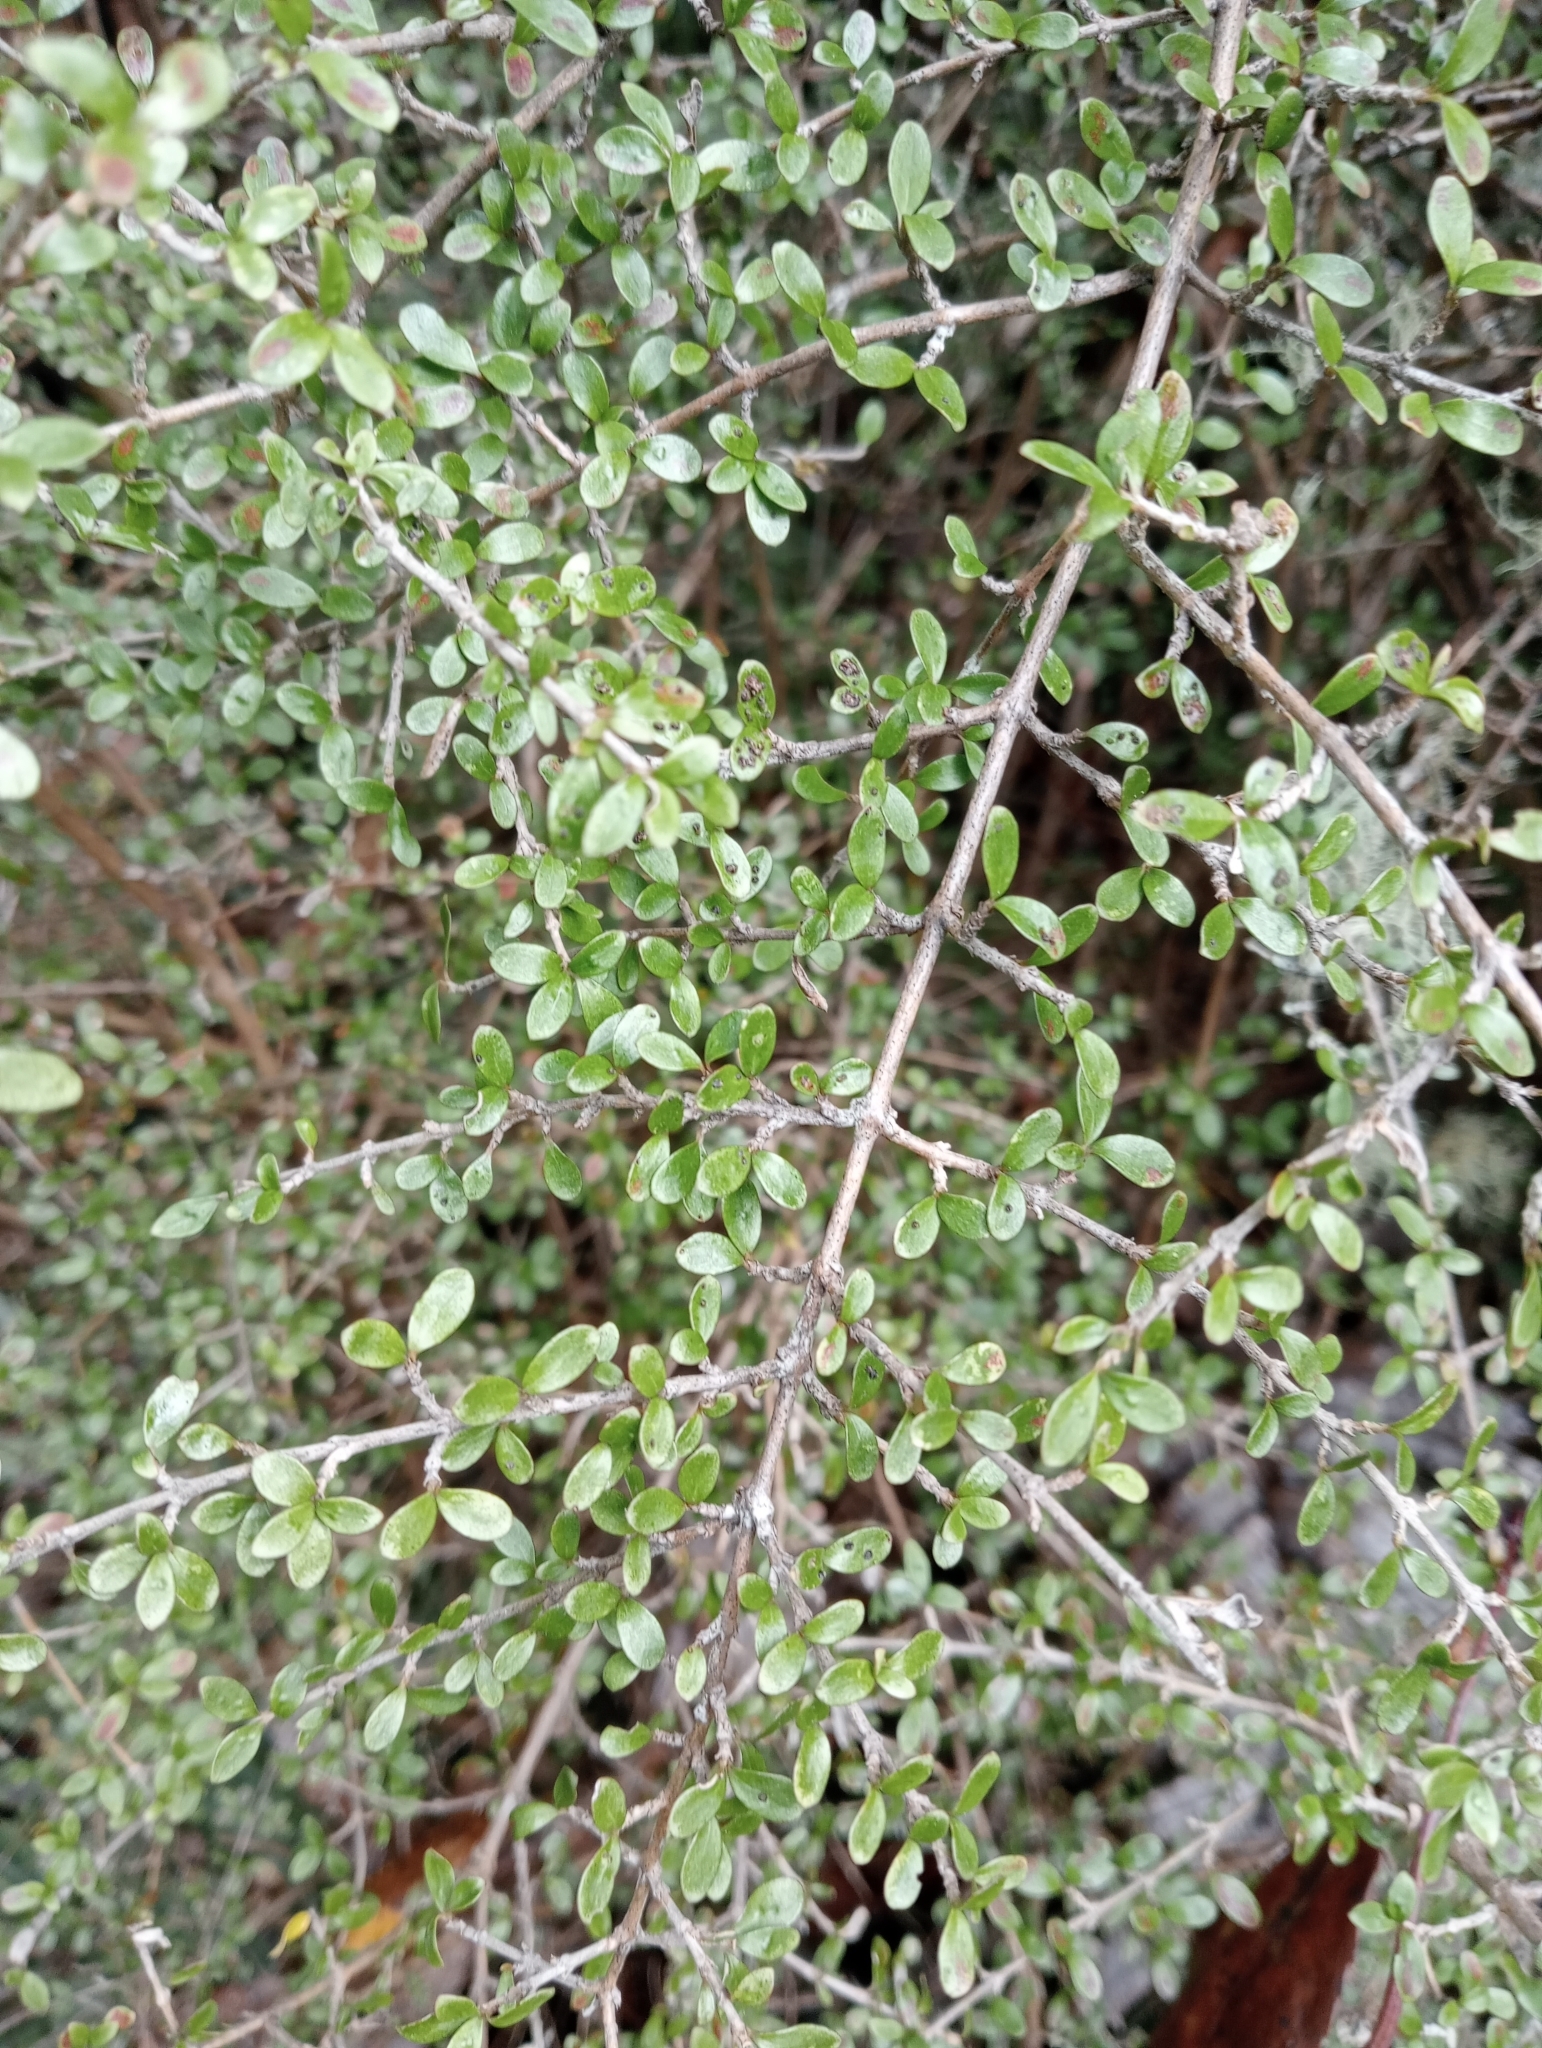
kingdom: Plantae
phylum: Tracheophyta
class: Magnoliopsida
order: Gentianales
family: Rubiaceae
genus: Coprosma
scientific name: Coprosma dumosa
